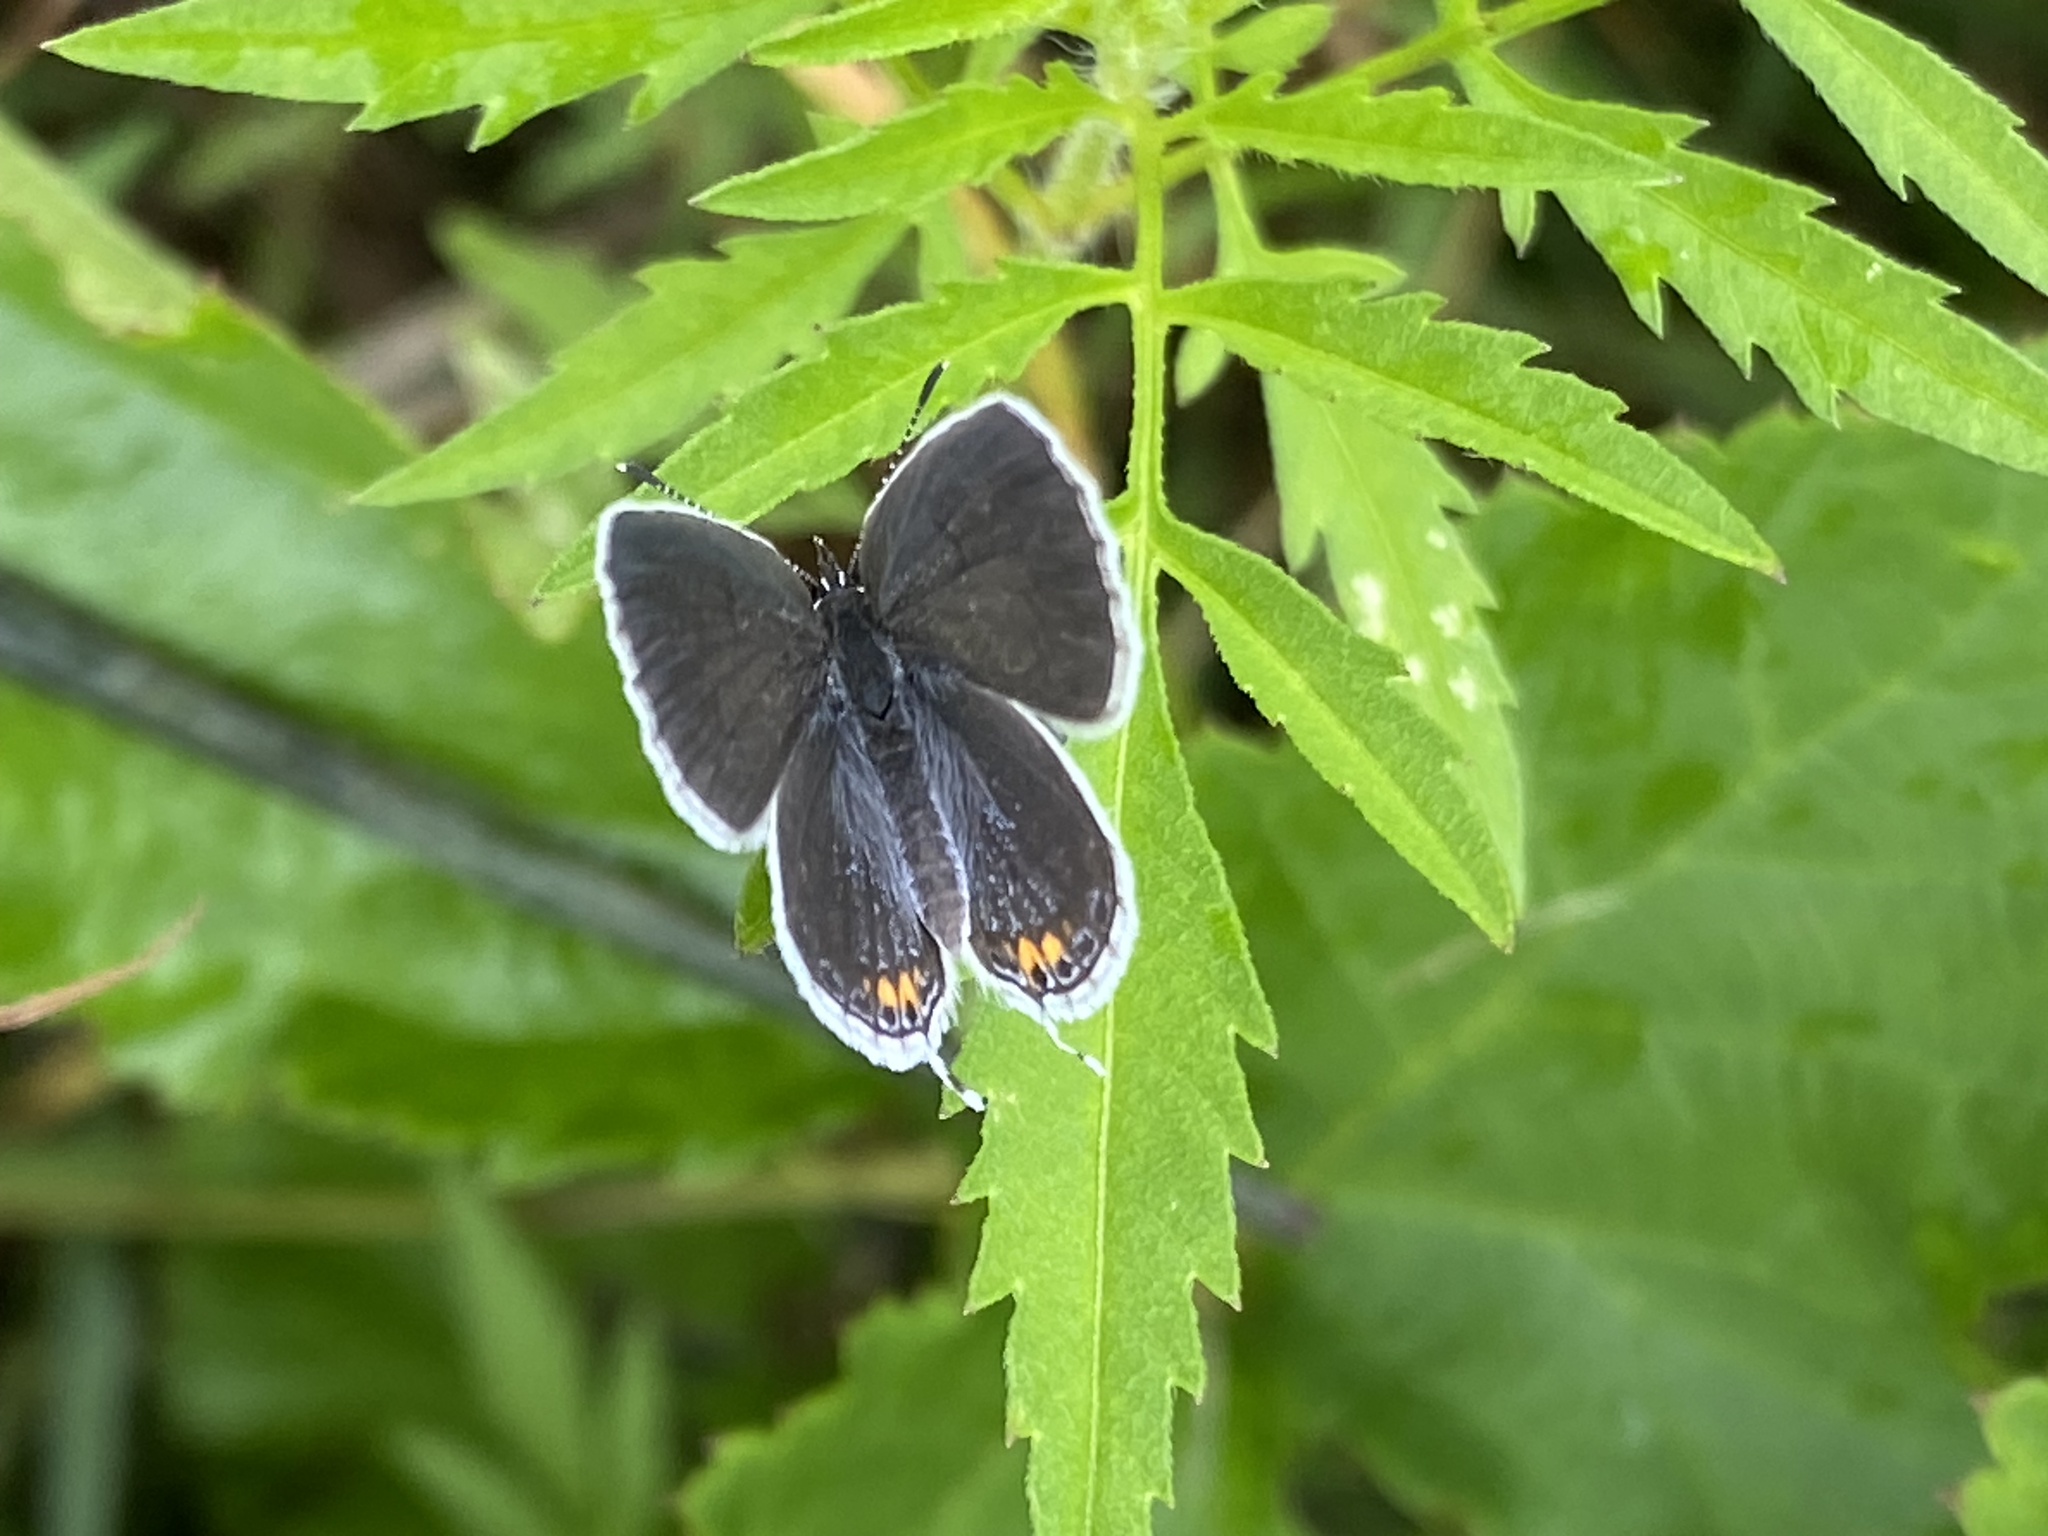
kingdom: Animalia
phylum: Arthropoda
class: Insecta
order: Lepidoptera
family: Lycaenidae
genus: Elkalyce
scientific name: Elkalyce comyntas
